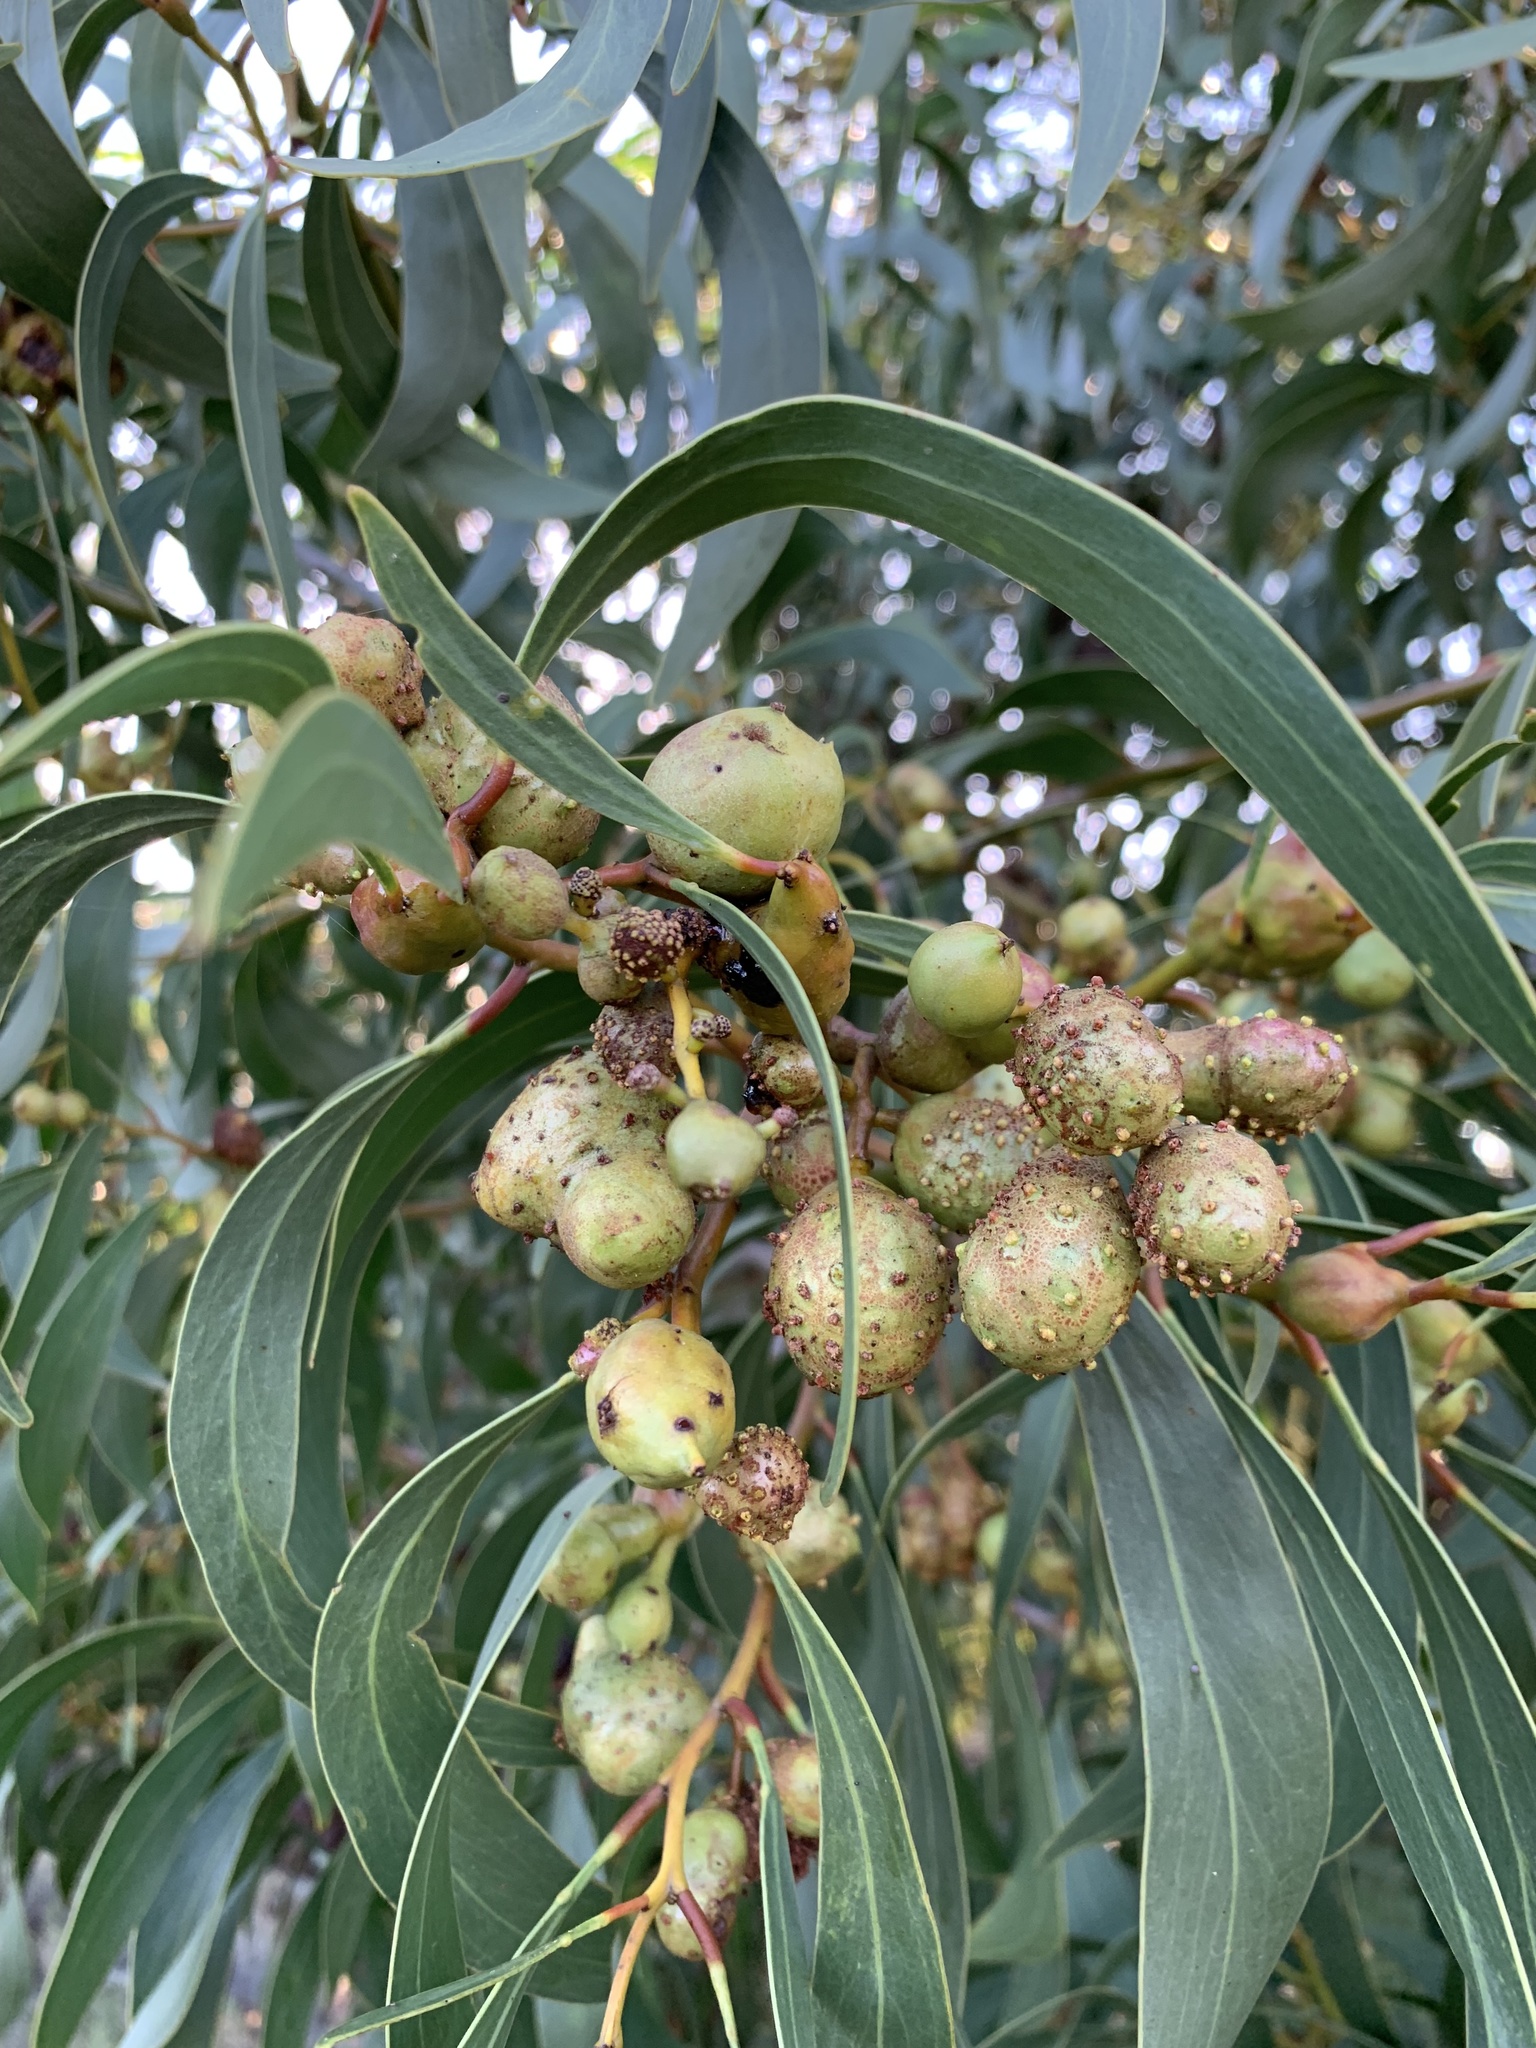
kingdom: Plantae
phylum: Tracheophyta
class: Magnoliopsida
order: Fabales
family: Fabaceae
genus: Acacia
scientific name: Acacia pycnantha
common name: Golden wattle
